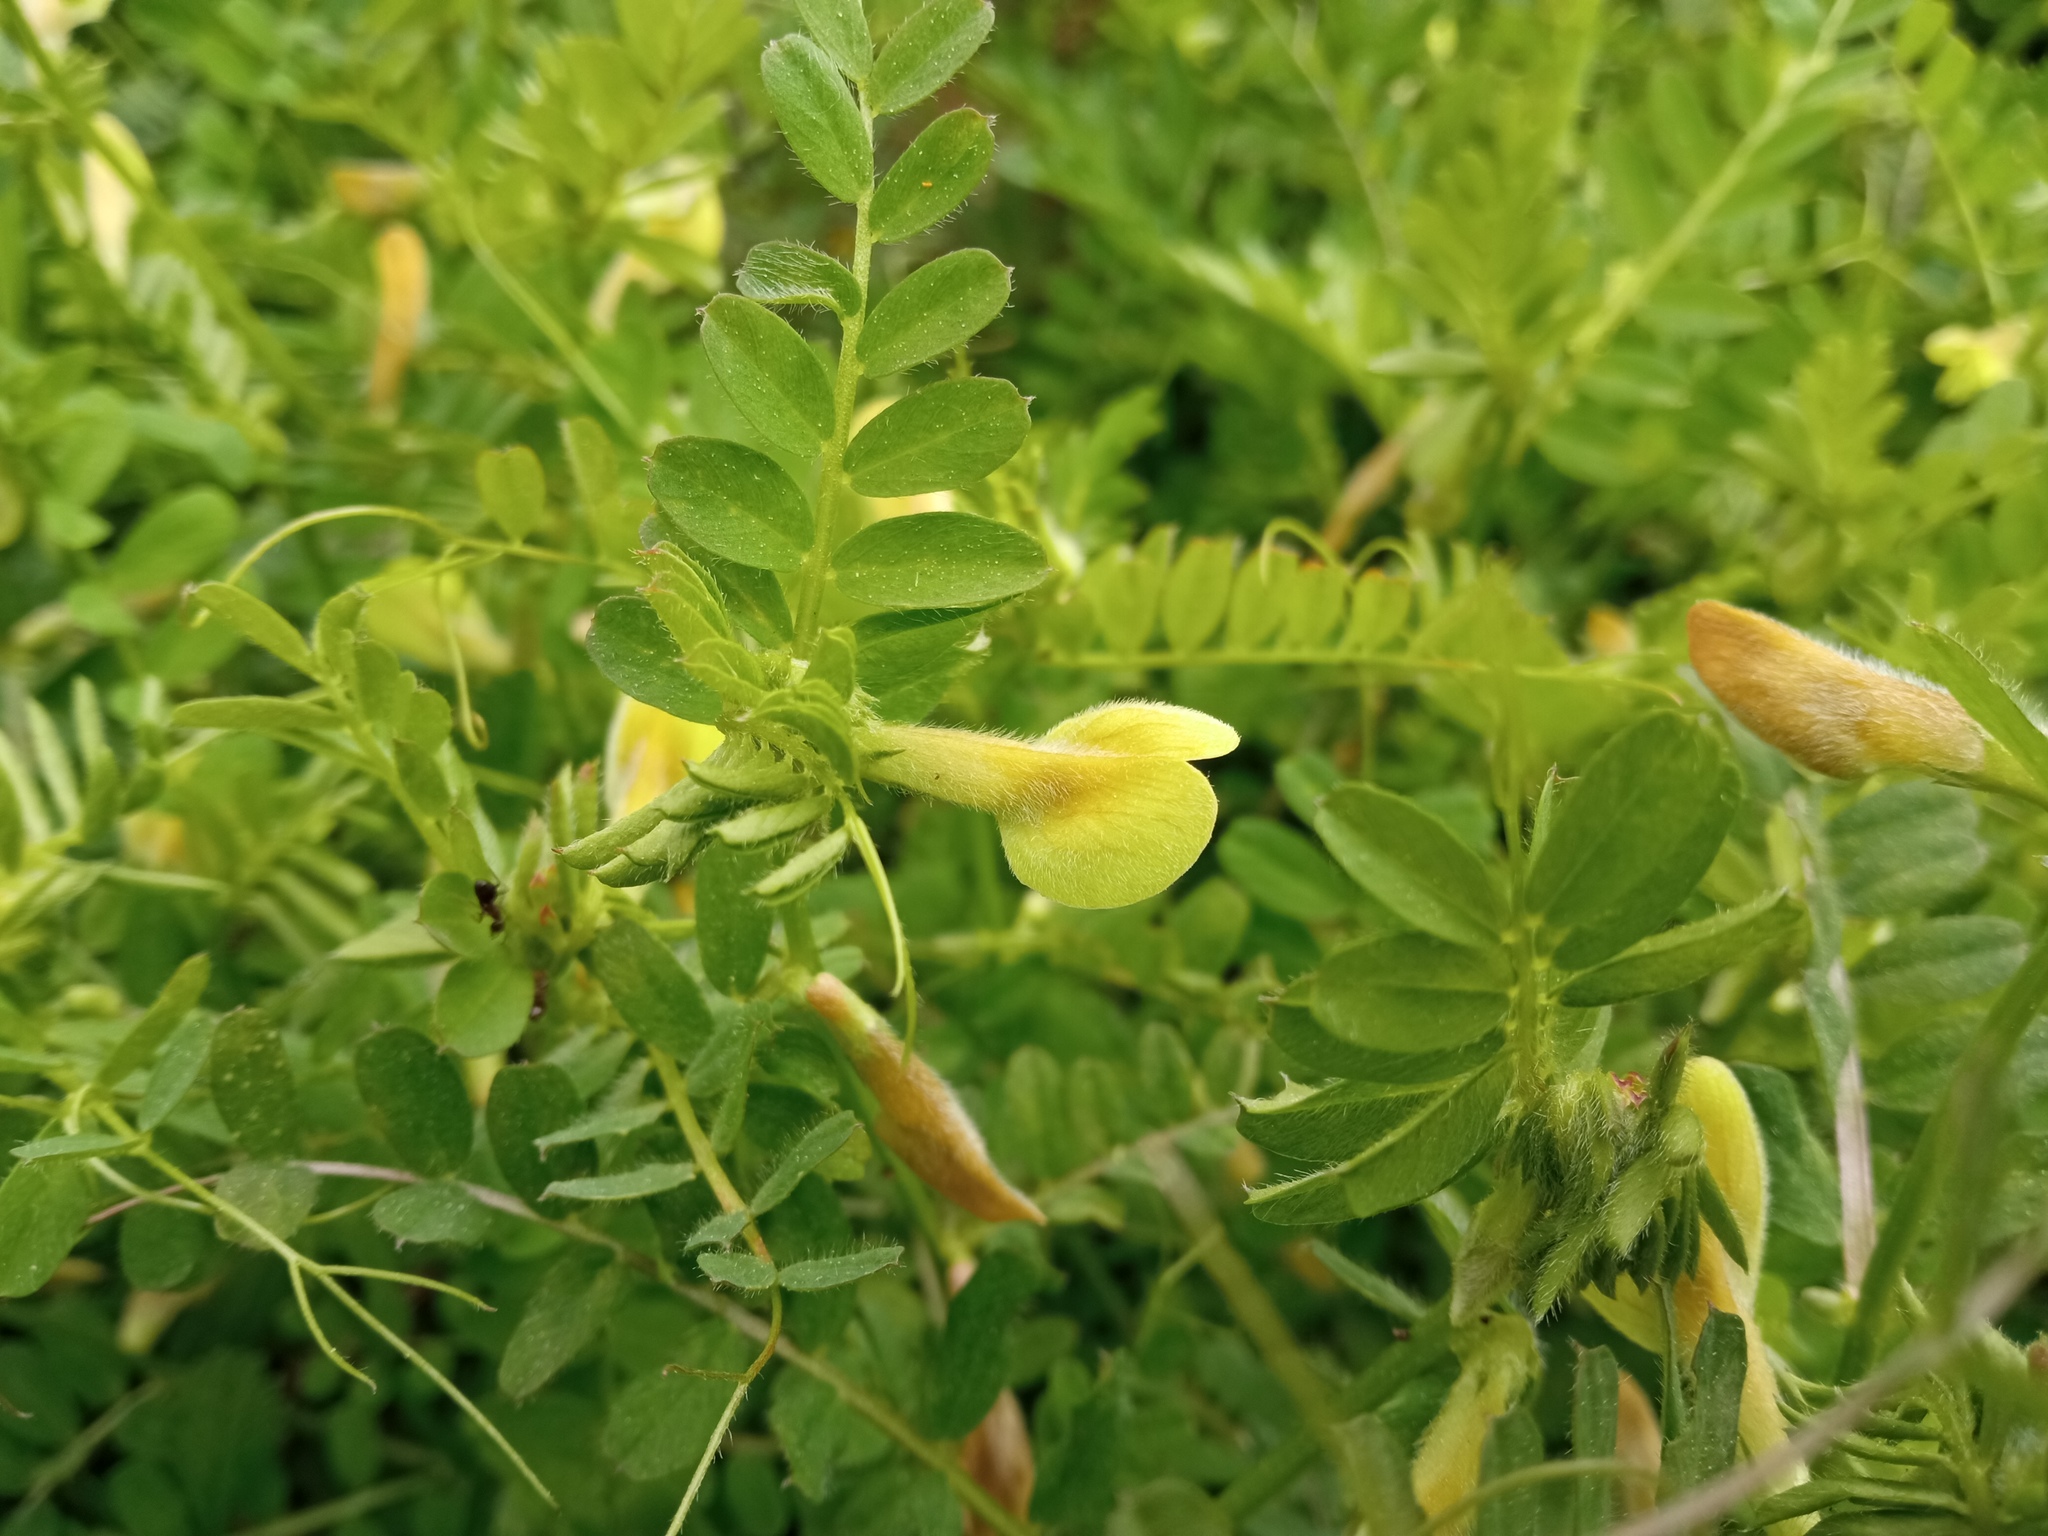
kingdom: Plantae
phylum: Tracheophyta
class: Magnoliopsida
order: Fabales
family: Fabaceae
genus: Vicia
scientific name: Vicia hybrida
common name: Hairy yellow vetch
